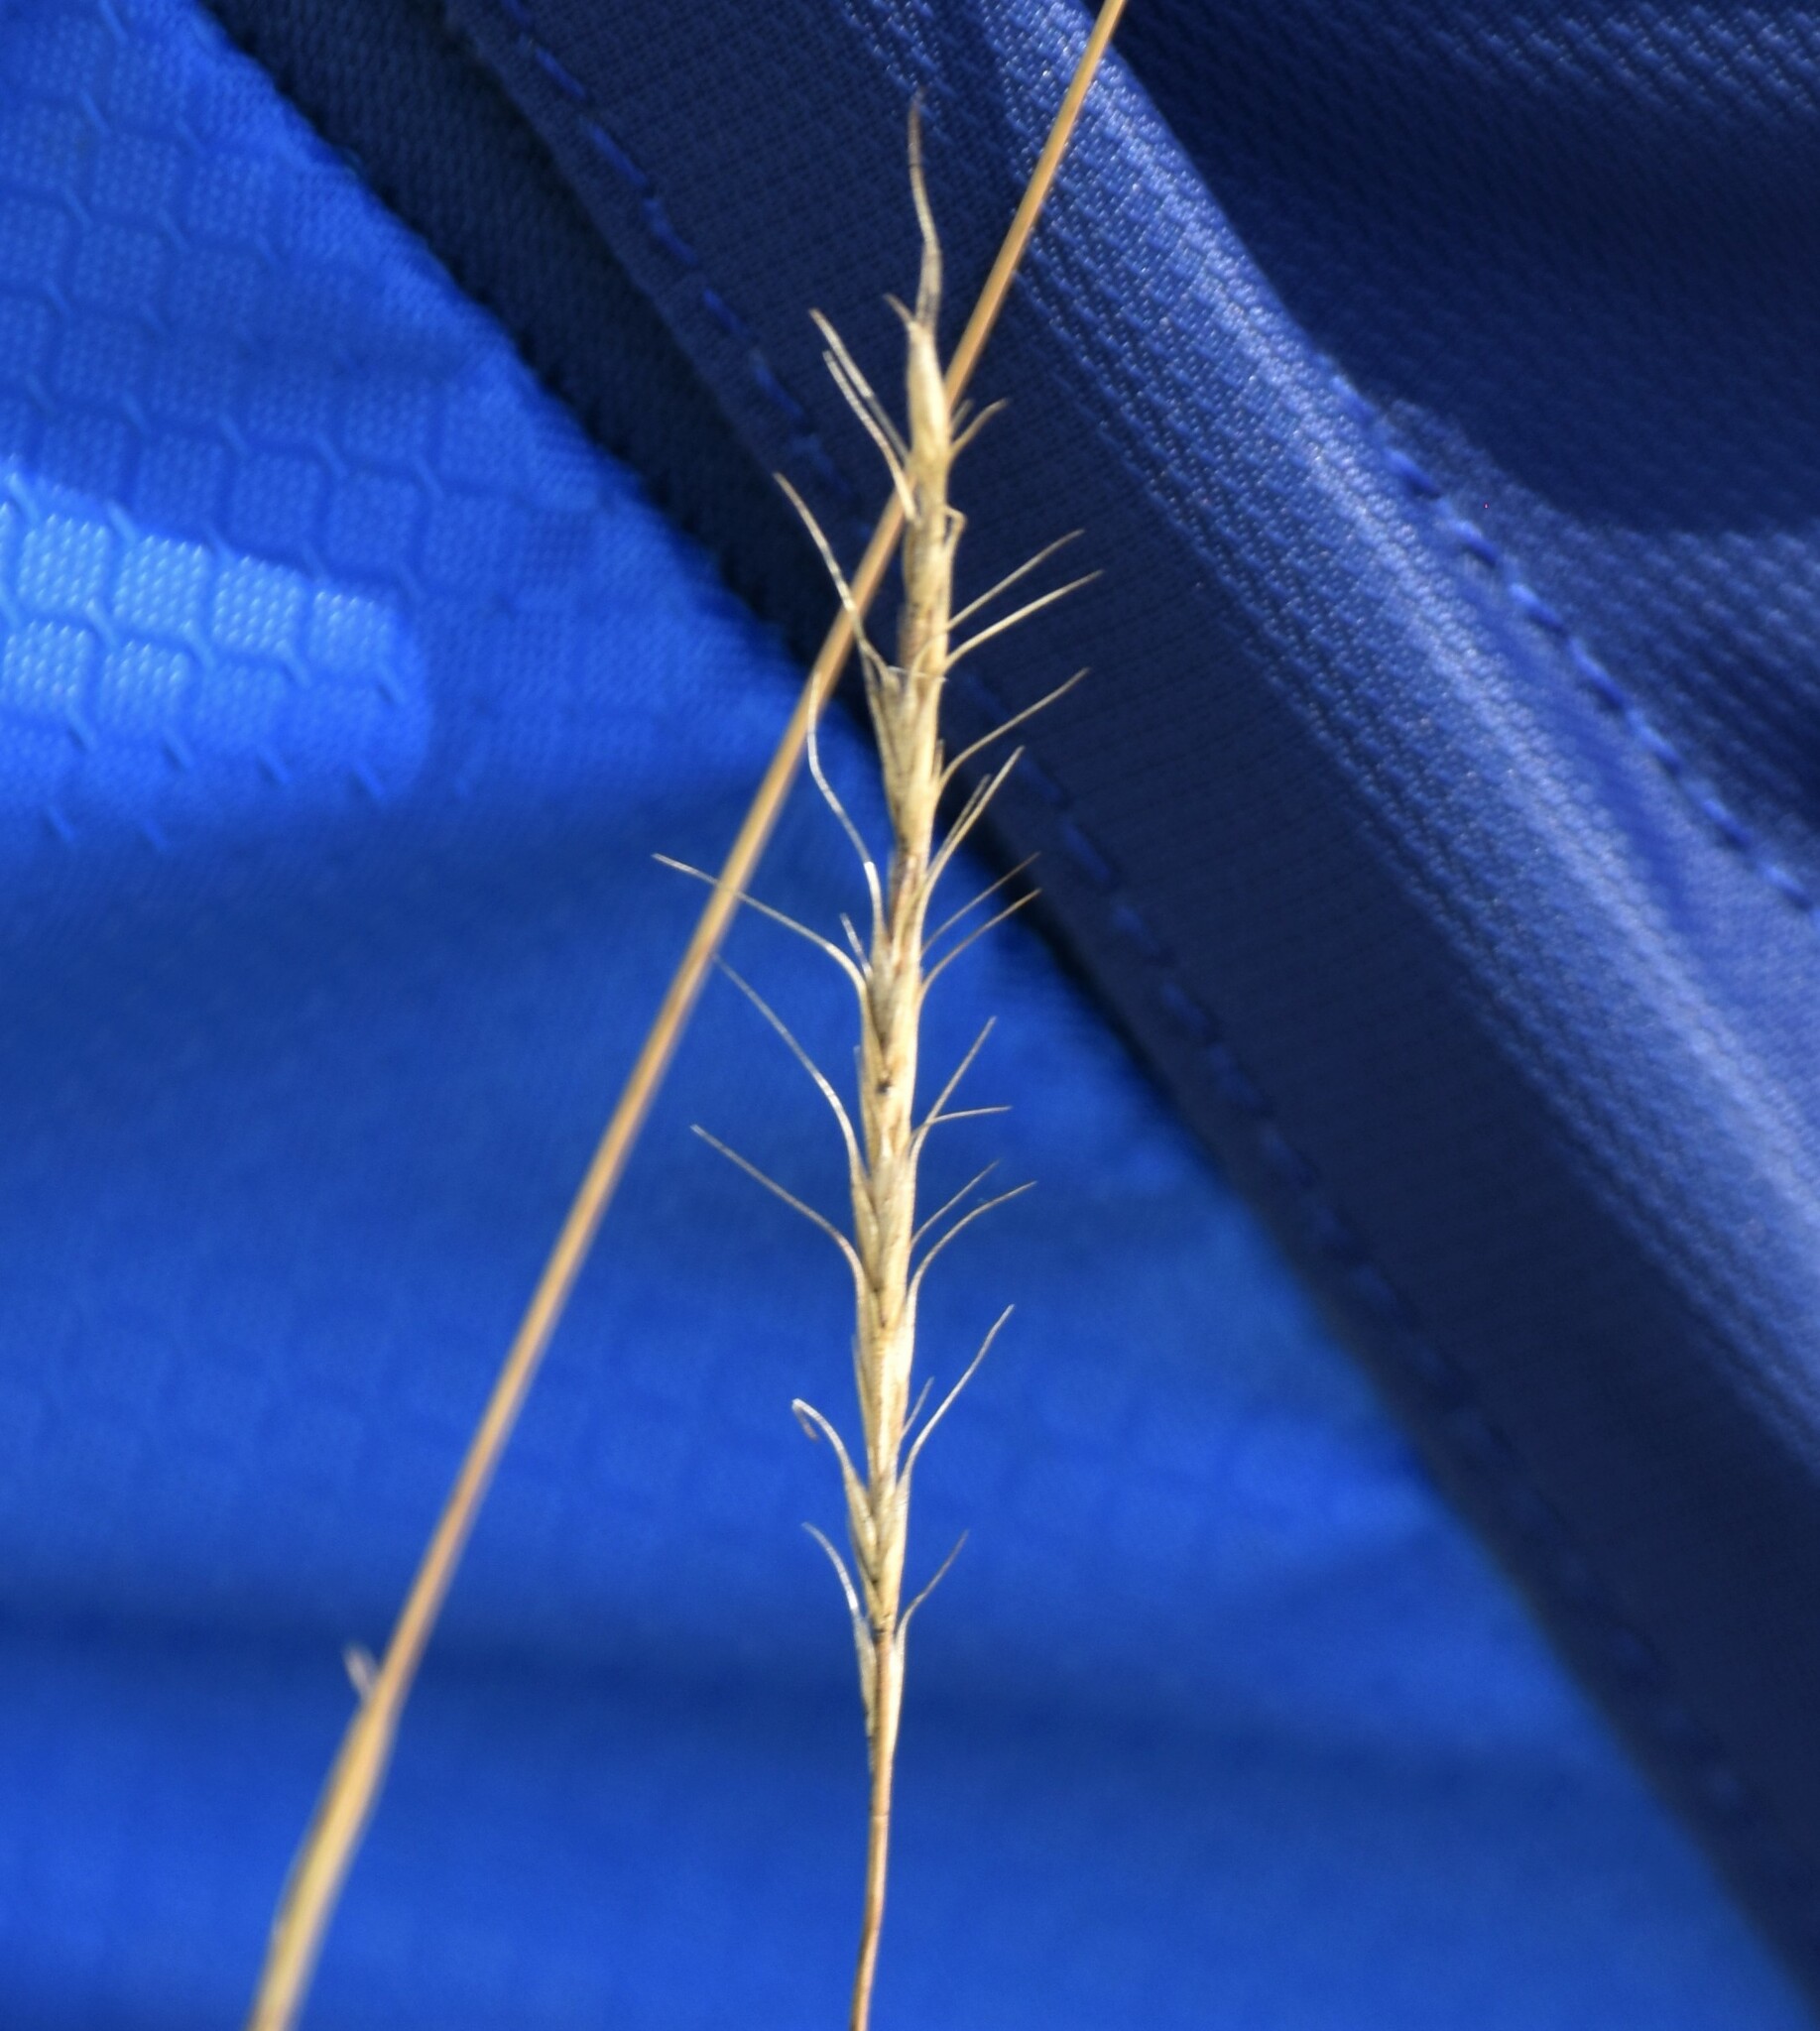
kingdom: Plantae
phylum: Tracheophyta
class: Liliopsida
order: Poales
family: Poaceae
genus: Elymus
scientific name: Elymus albicans
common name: Montana wheatgrass
